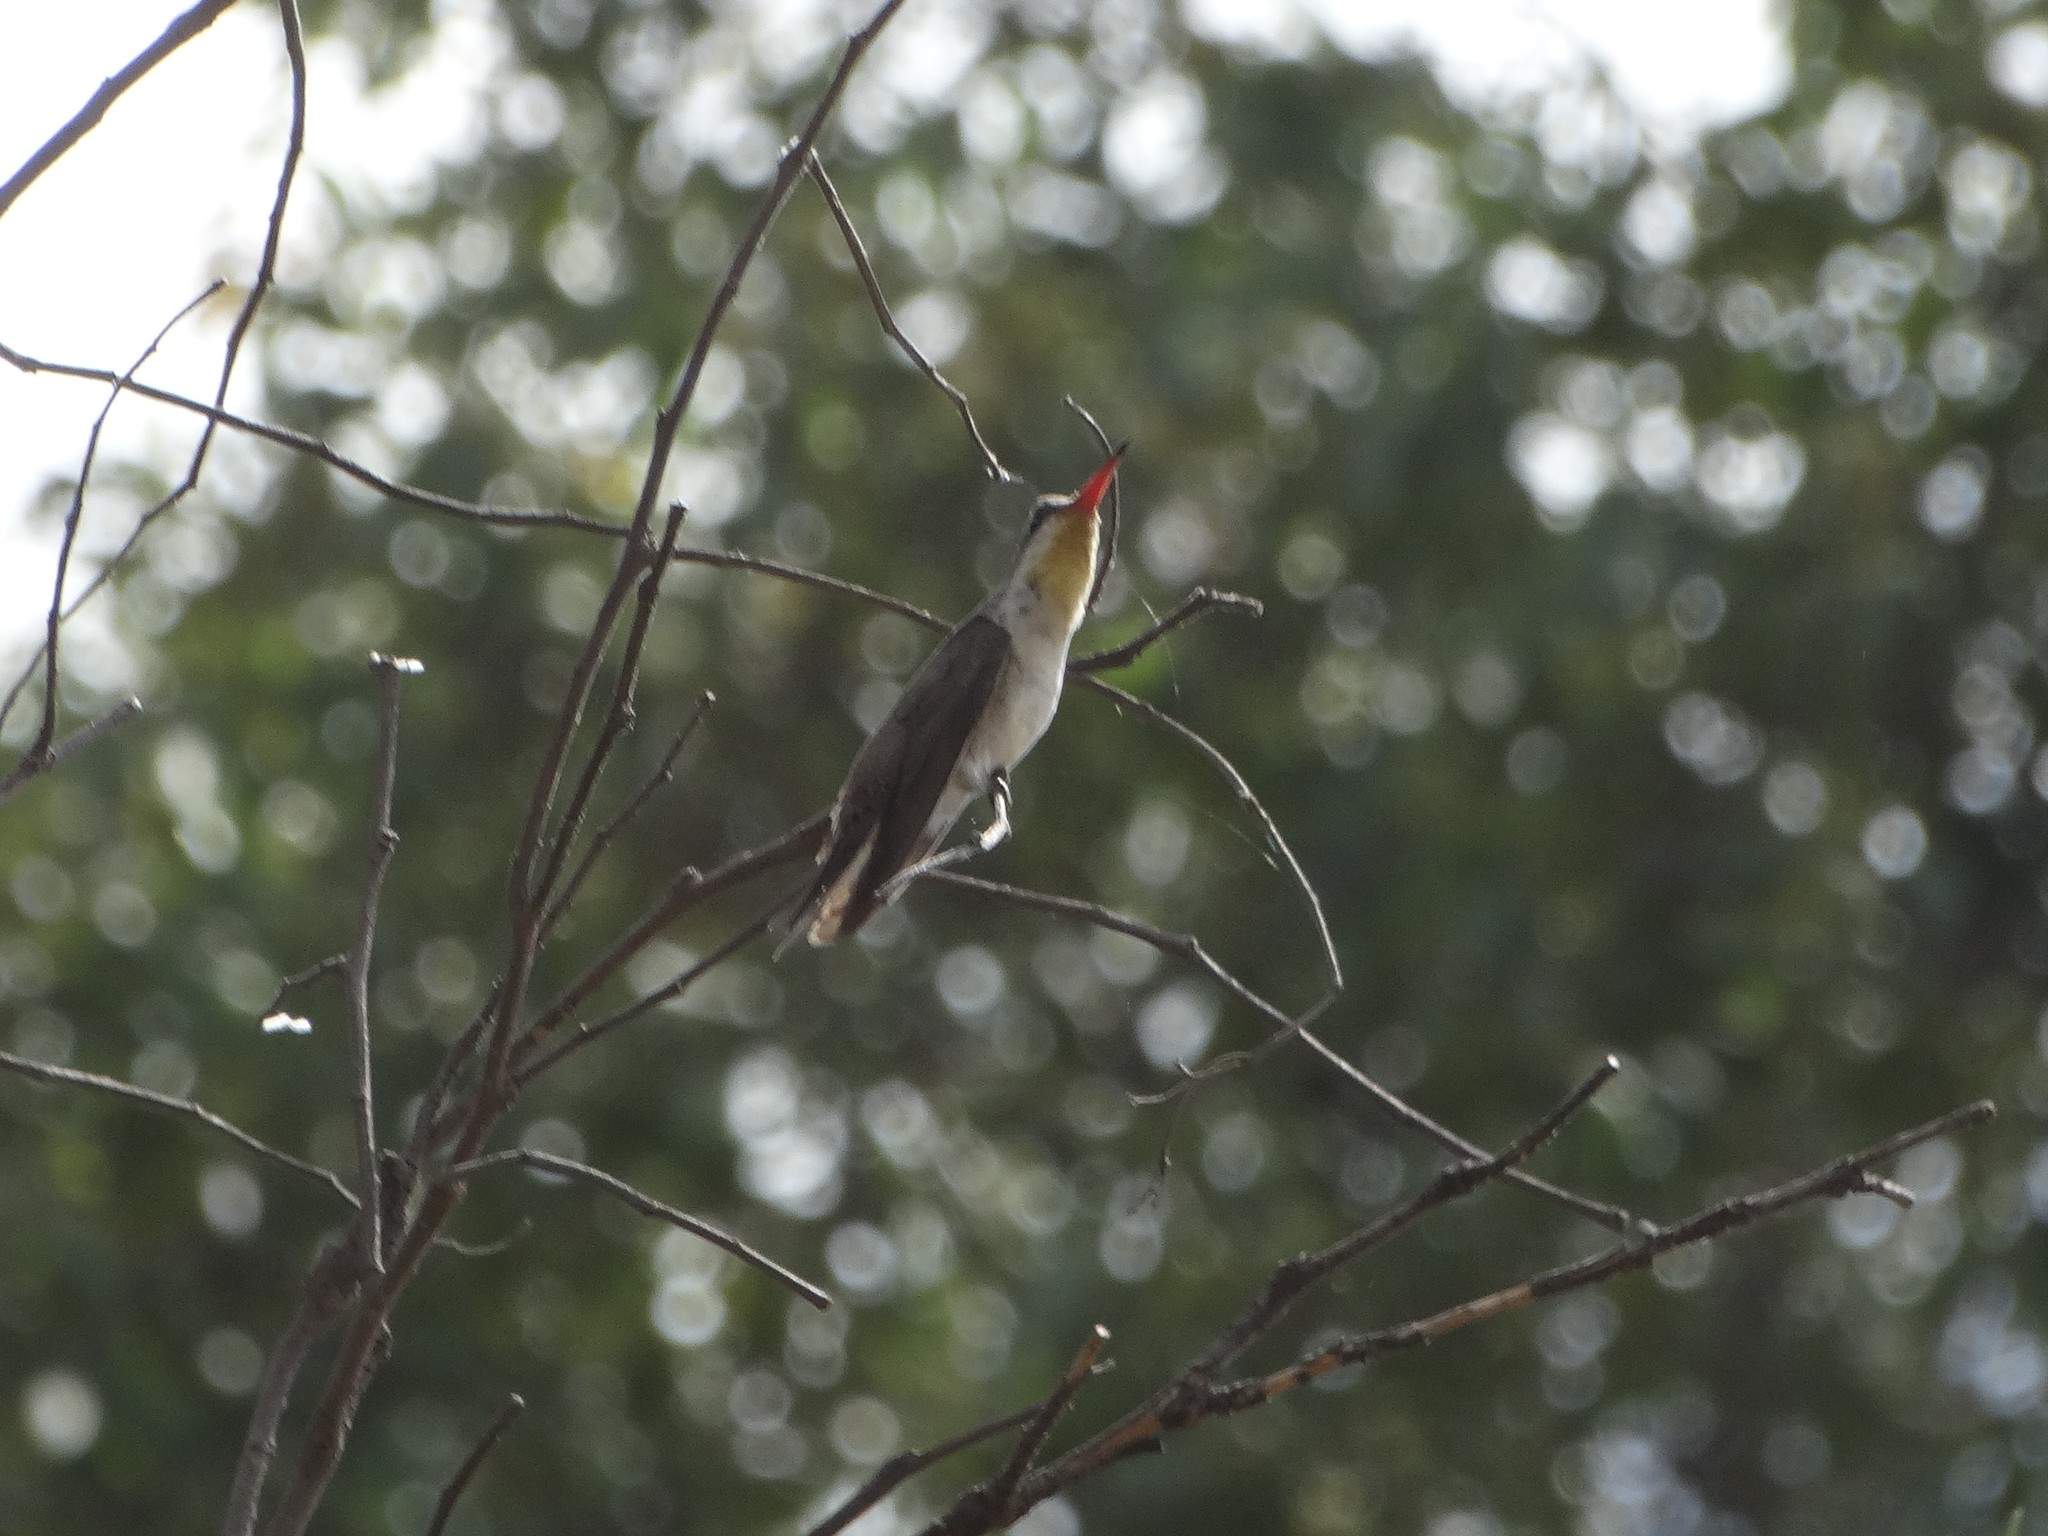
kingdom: Animalia
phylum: Chordata
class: Aves
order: Apodiformes
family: Trochilidae
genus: Leucolia
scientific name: Leucolia violiceps
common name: Violet-crowned hummingbird
